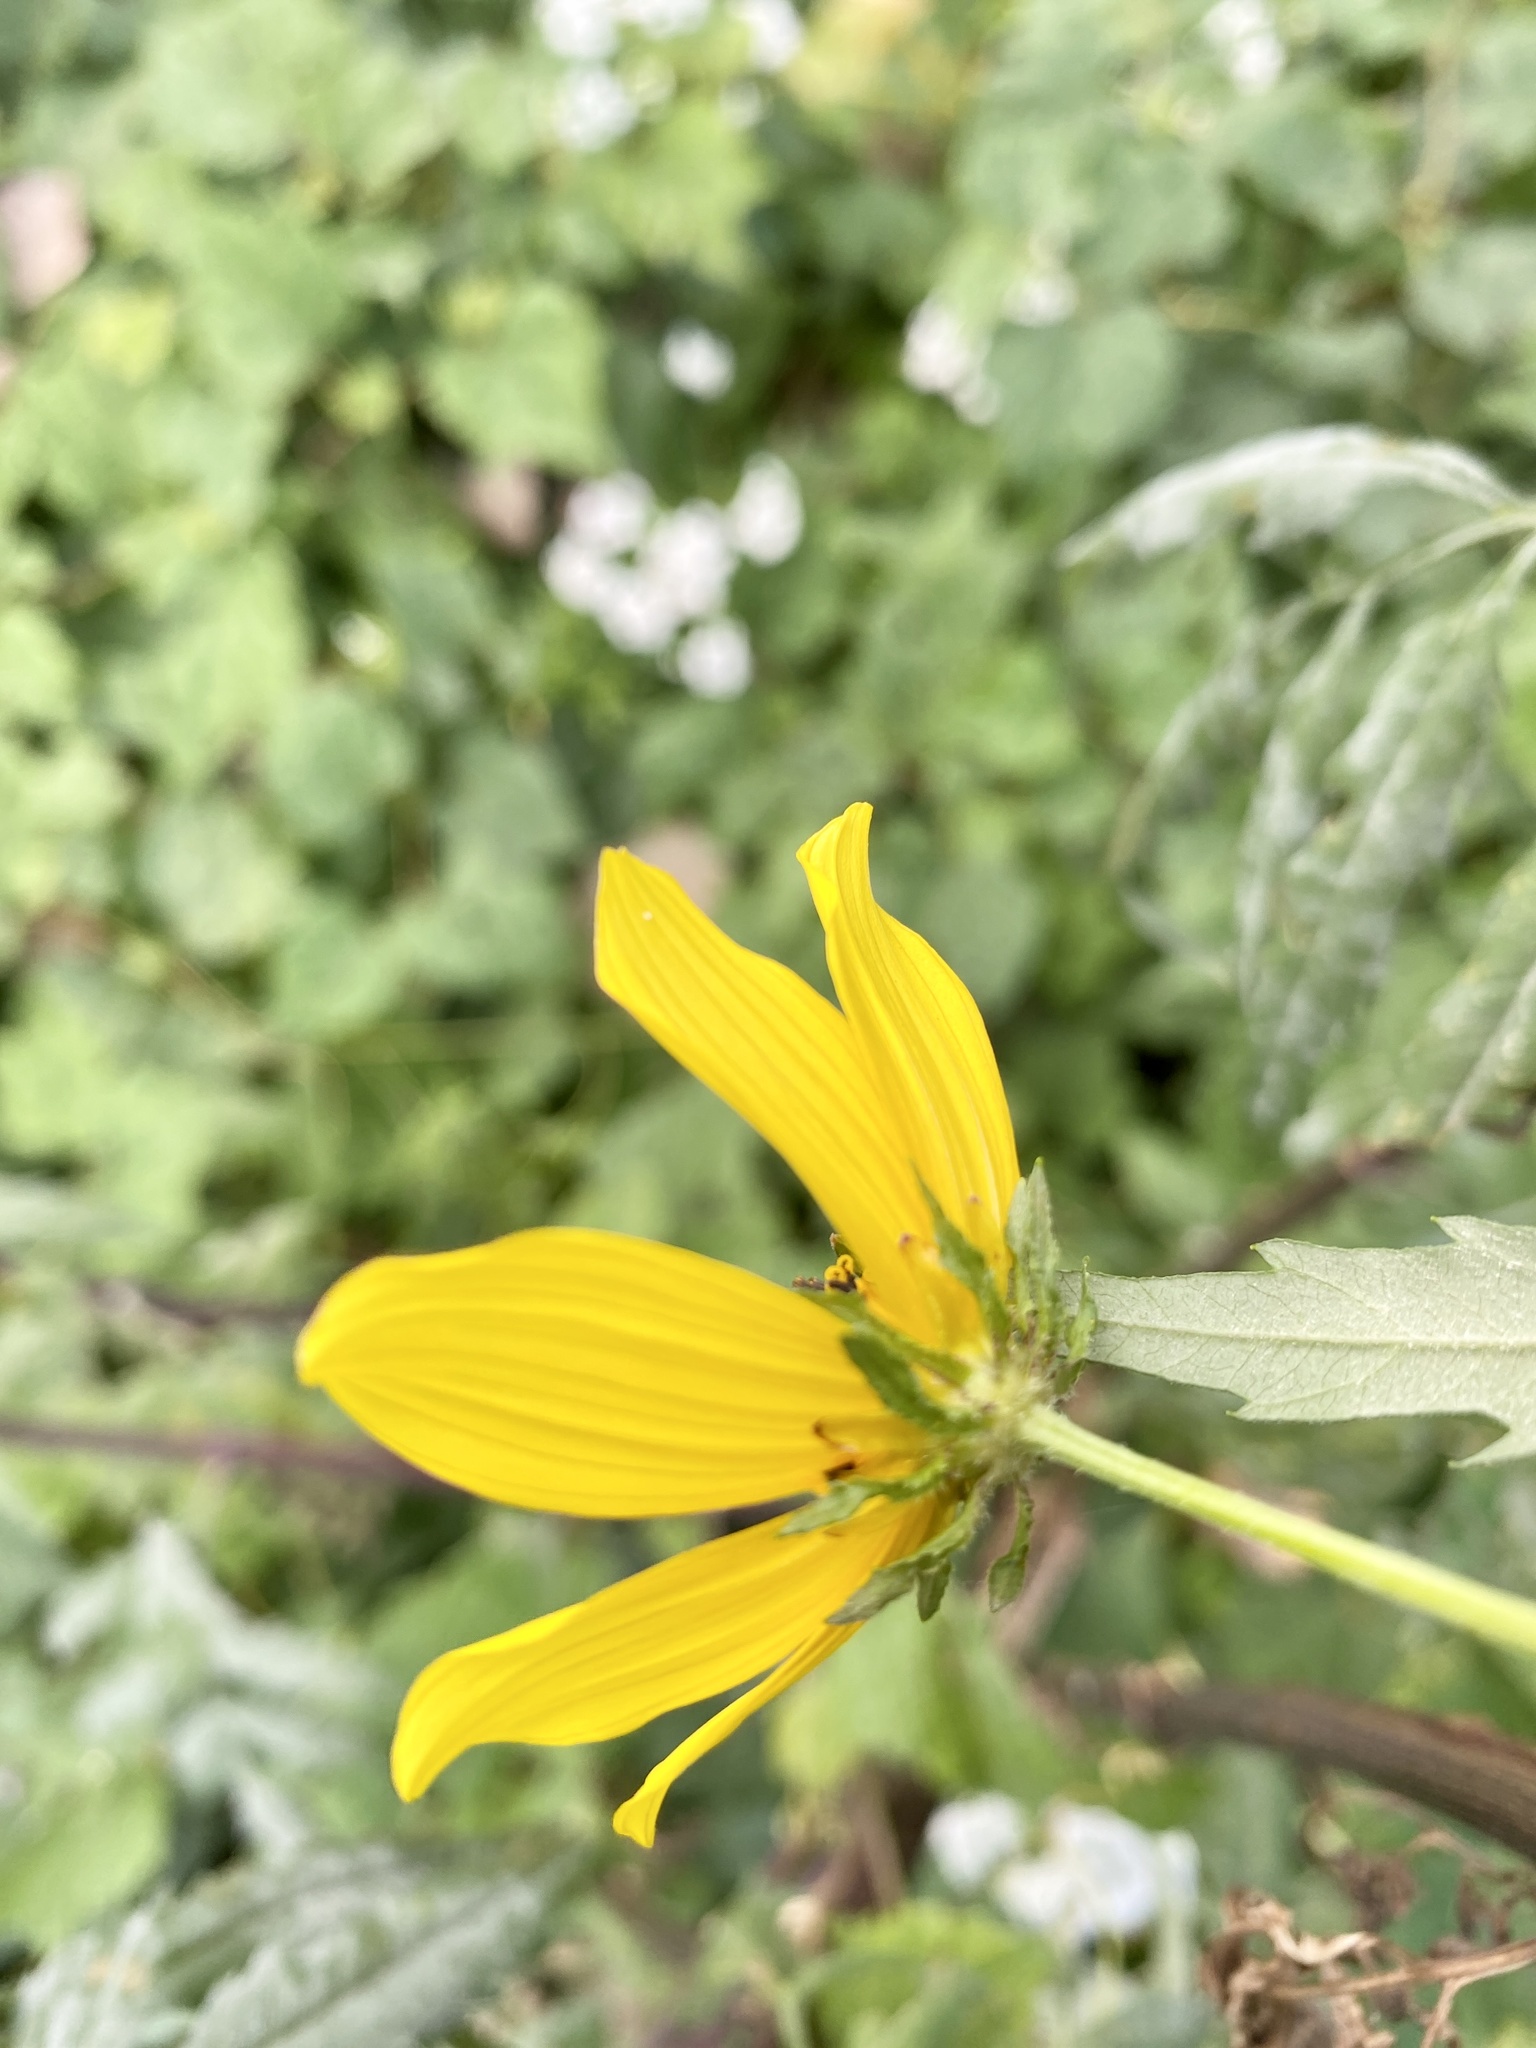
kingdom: Plantae
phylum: Tracheophyta
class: Magnoliopsida
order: Asterales
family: Asteraceae
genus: Bidens
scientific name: Bidens polylepis
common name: Awnless beggarticks
